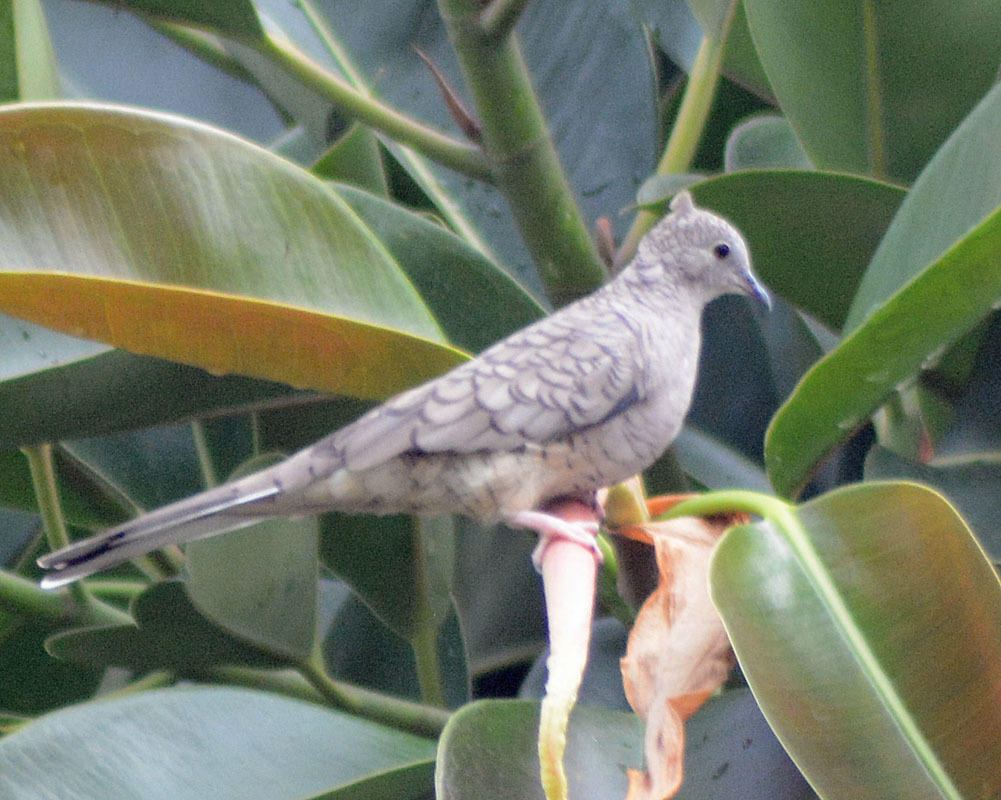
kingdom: Animalia
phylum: Chordata
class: Aves
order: Columbiformes
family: Columbidae
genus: Columbina
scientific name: Columbina inca
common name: Inca dove
